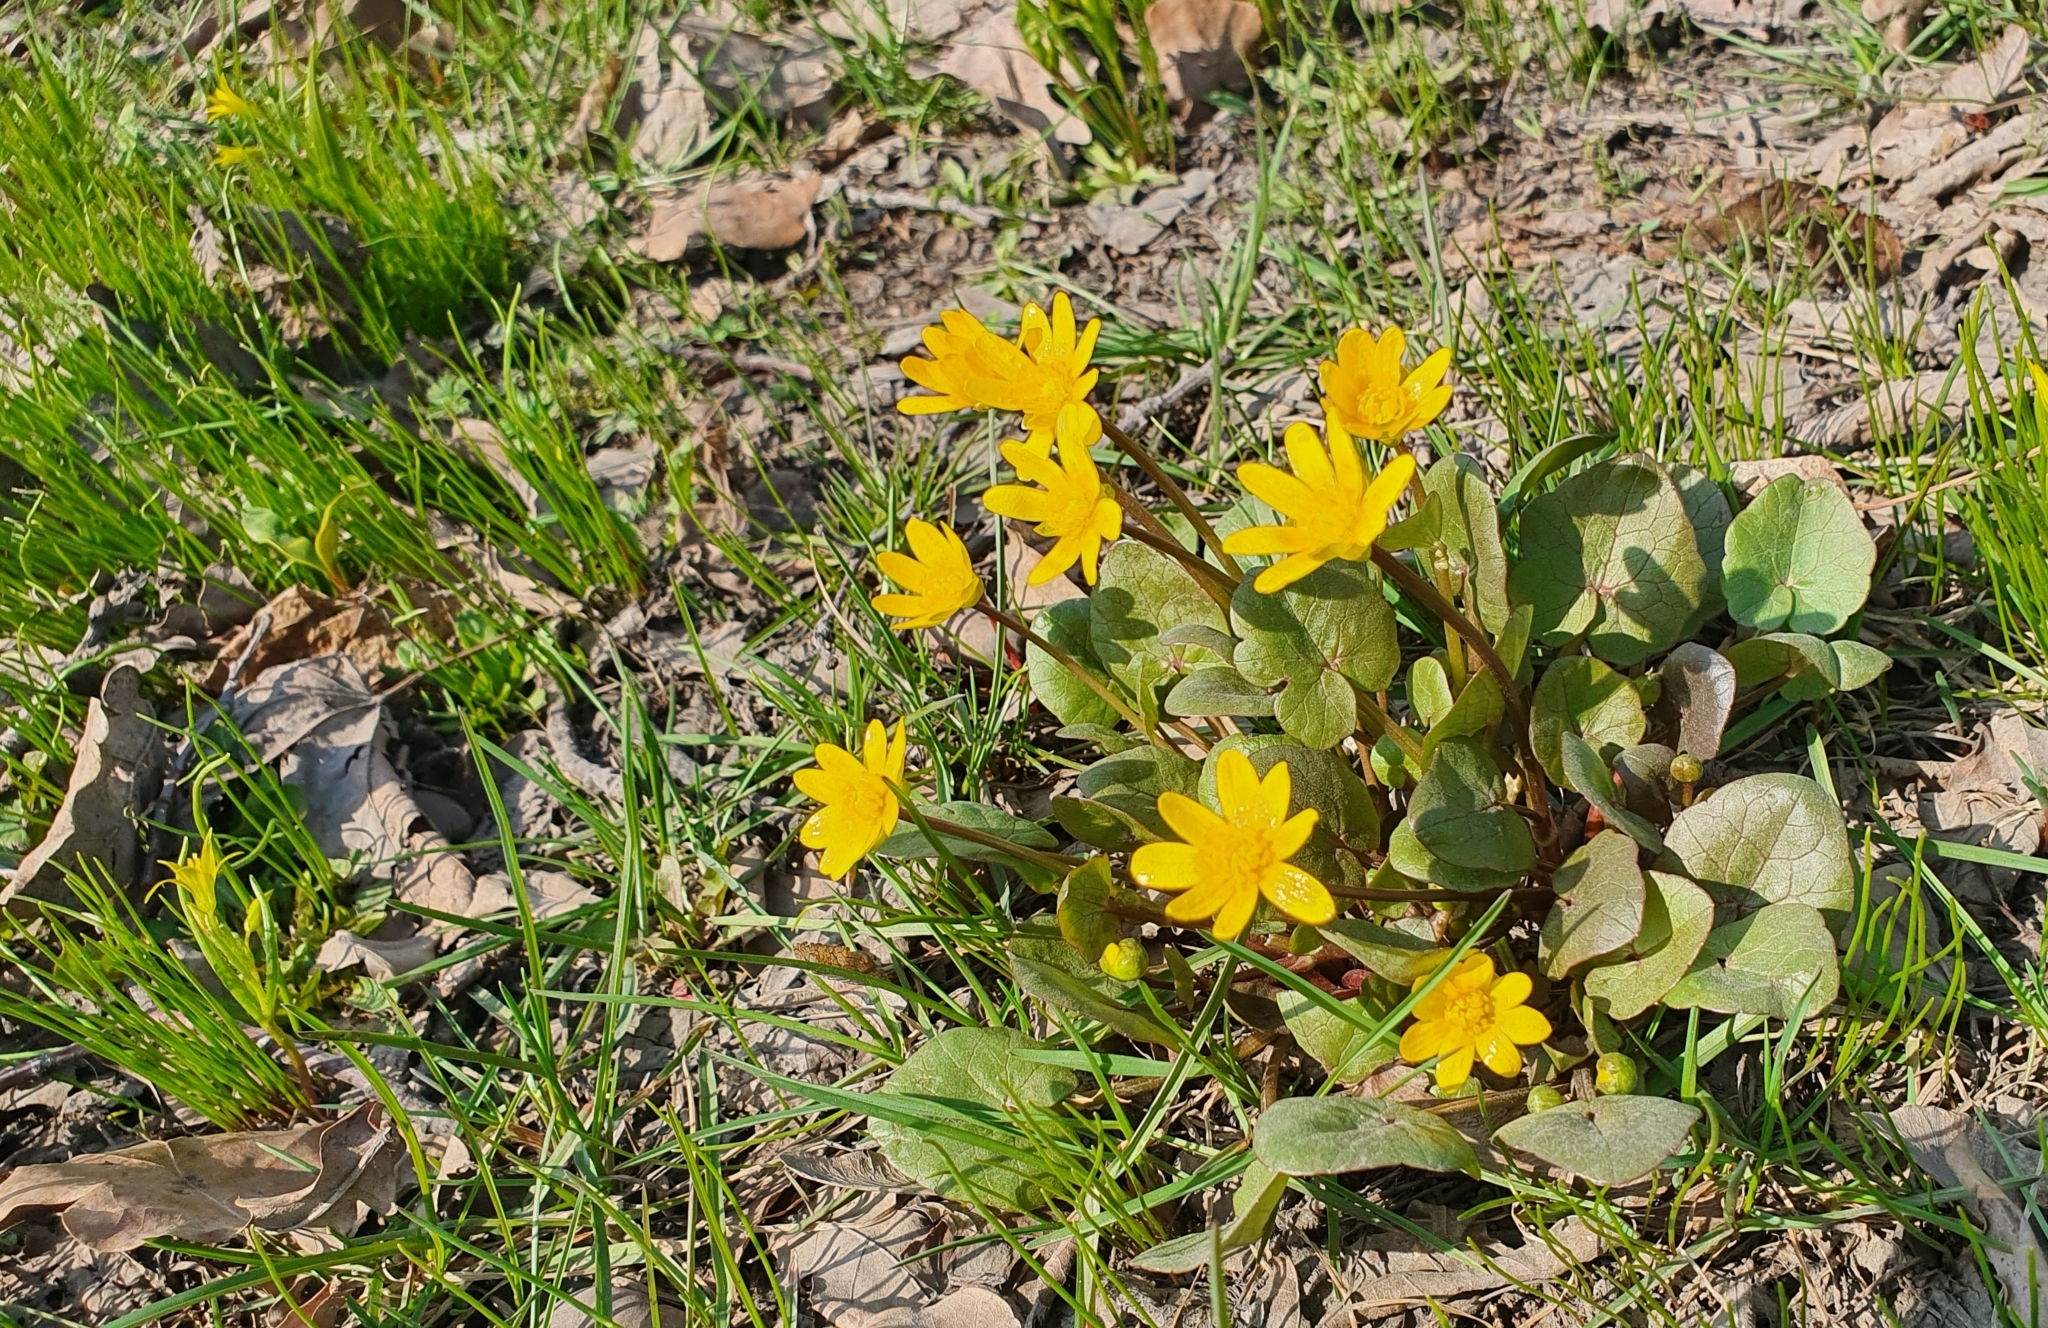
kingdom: Plantae
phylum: Tracheophyta
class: Magnoliopsida
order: Ranunculales
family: Ranunculaceae
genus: Ficaria
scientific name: Ficaria verna
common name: Lesser celandine
